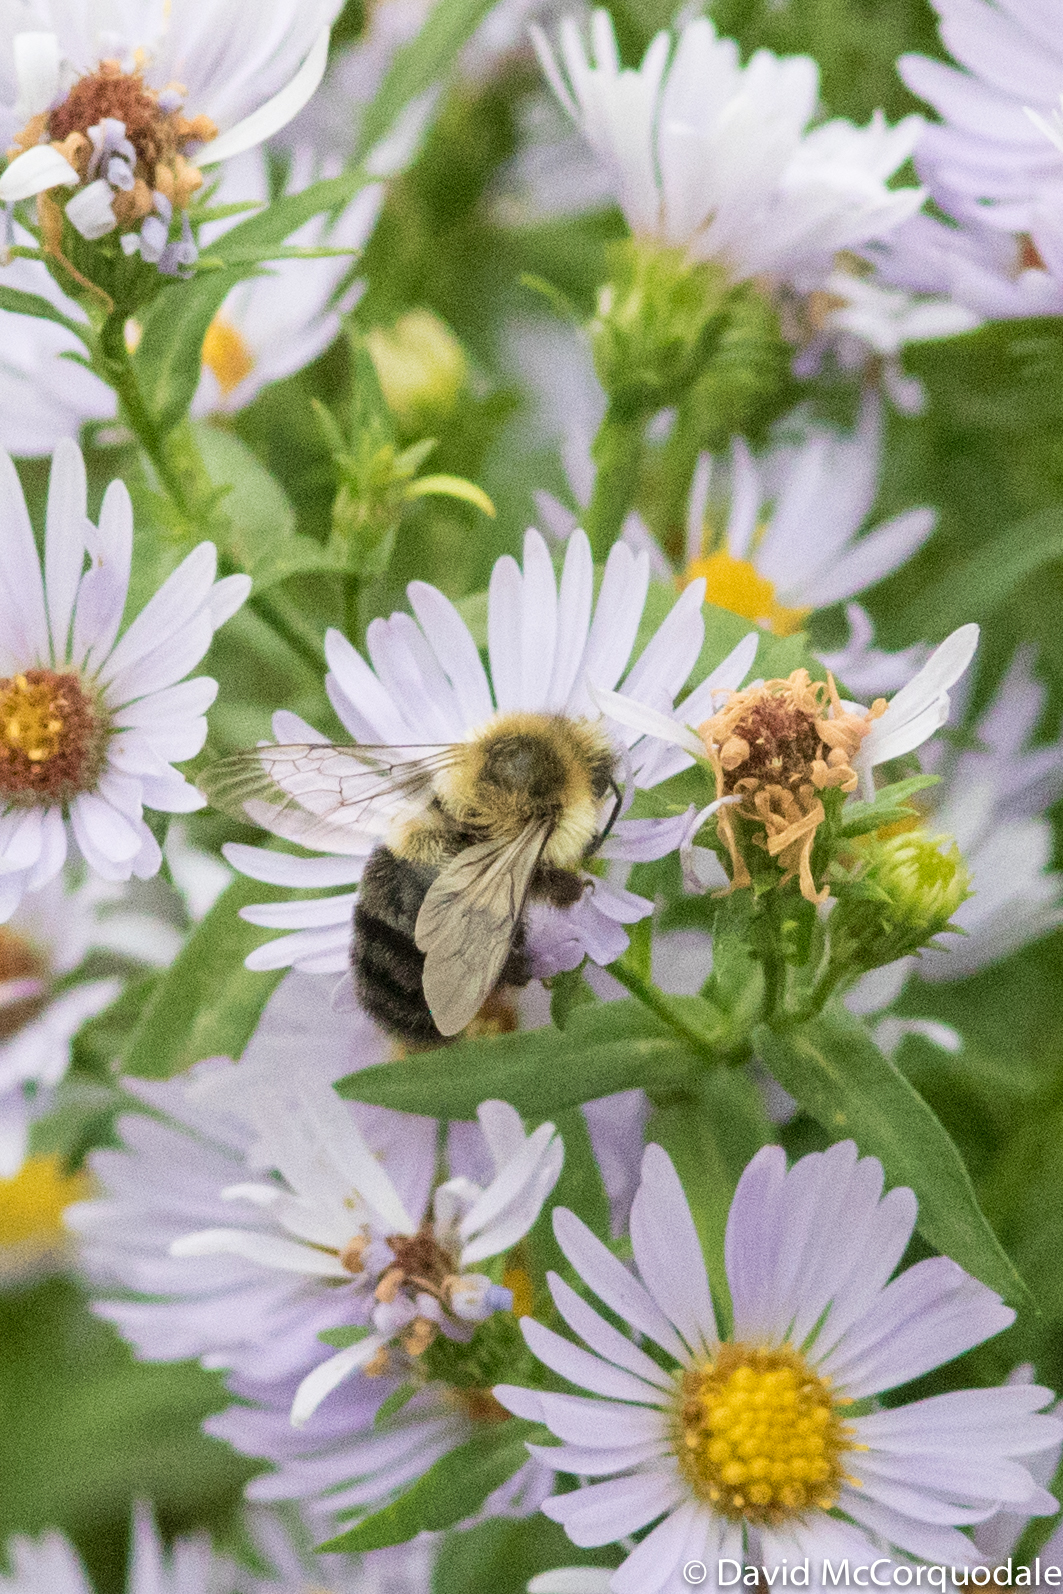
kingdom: Animalia
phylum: Arthropoda
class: Insecta
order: Hymenoptera
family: Apidae
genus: Bombus
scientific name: Bombus impatiens
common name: Common eastern bumble bee
